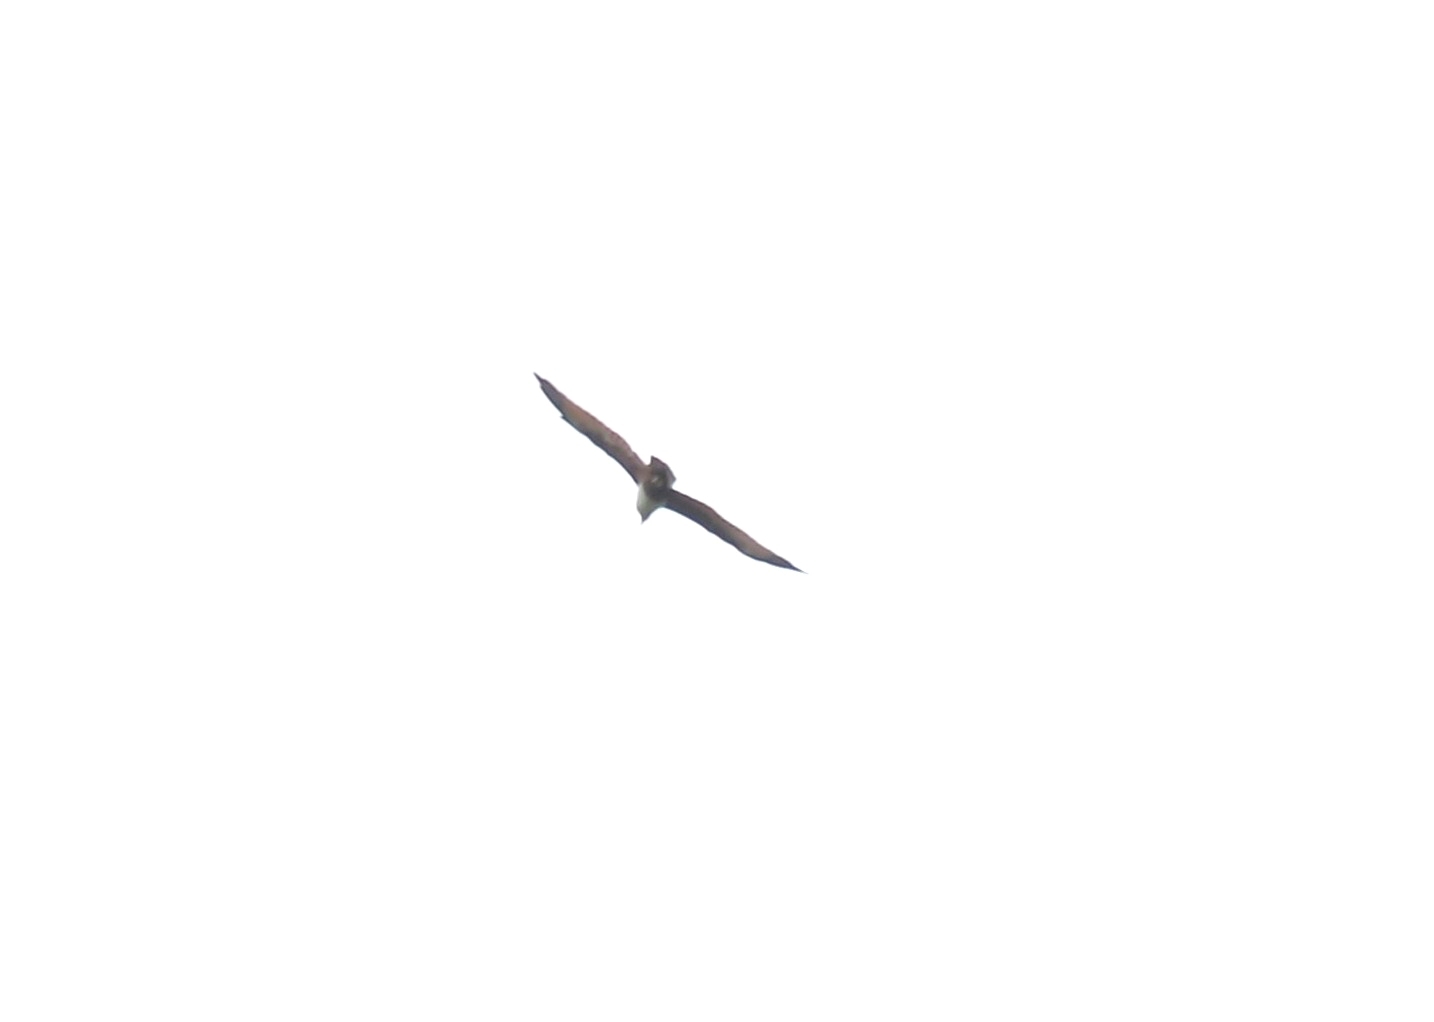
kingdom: Animalia
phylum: Chordata
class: Aves
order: Accipitriformes
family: Accipitridae
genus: Haliastur
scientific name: Haliastur indus
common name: Brahminy kite
